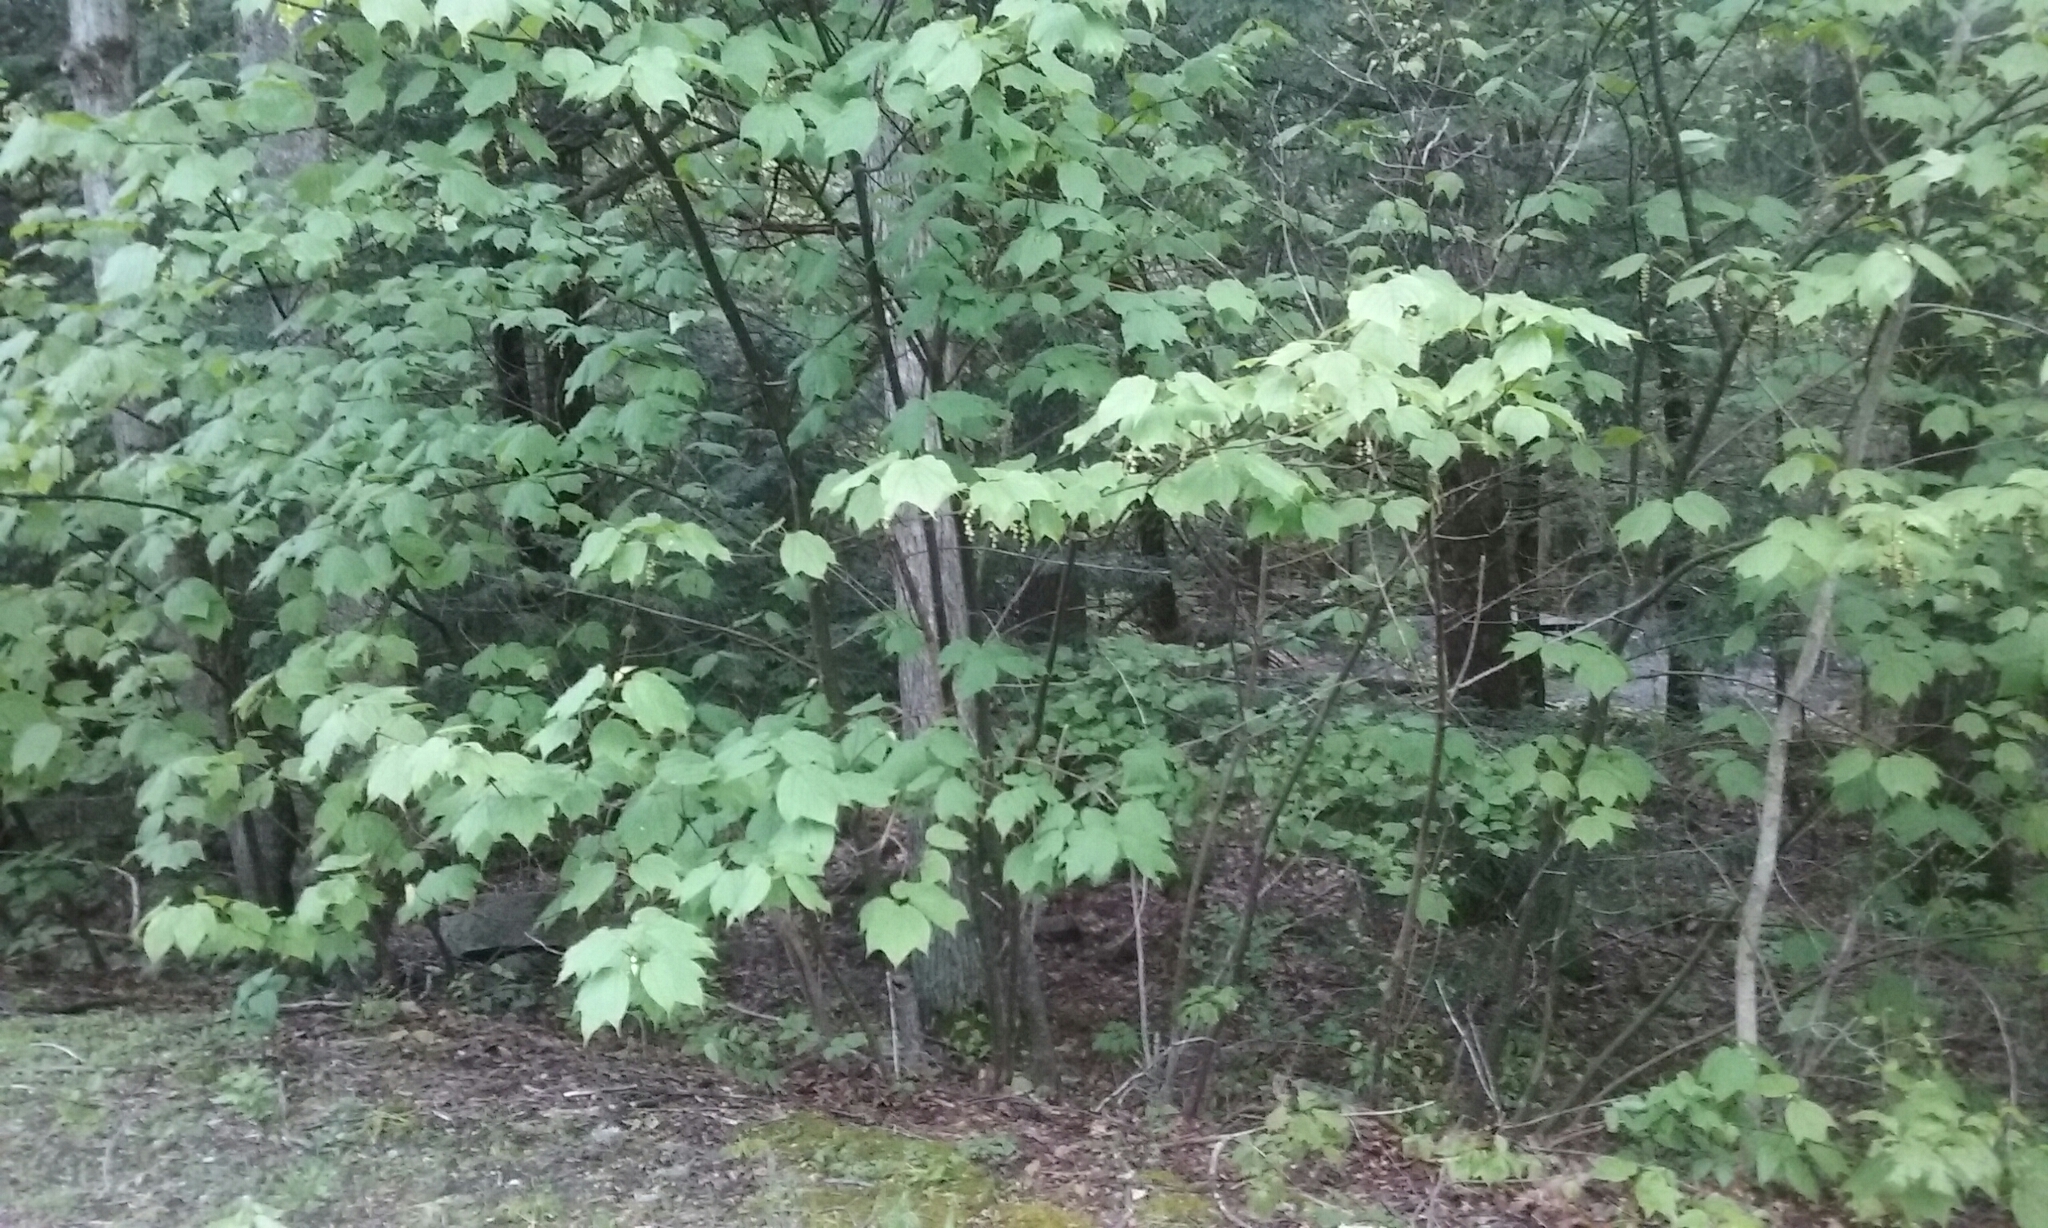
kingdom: Plantae
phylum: Tracheophyta
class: Magnoliopsida
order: Sapindales
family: Sapindaceae
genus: Acer
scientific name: Acer pensylvanicum
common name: Moosewood
